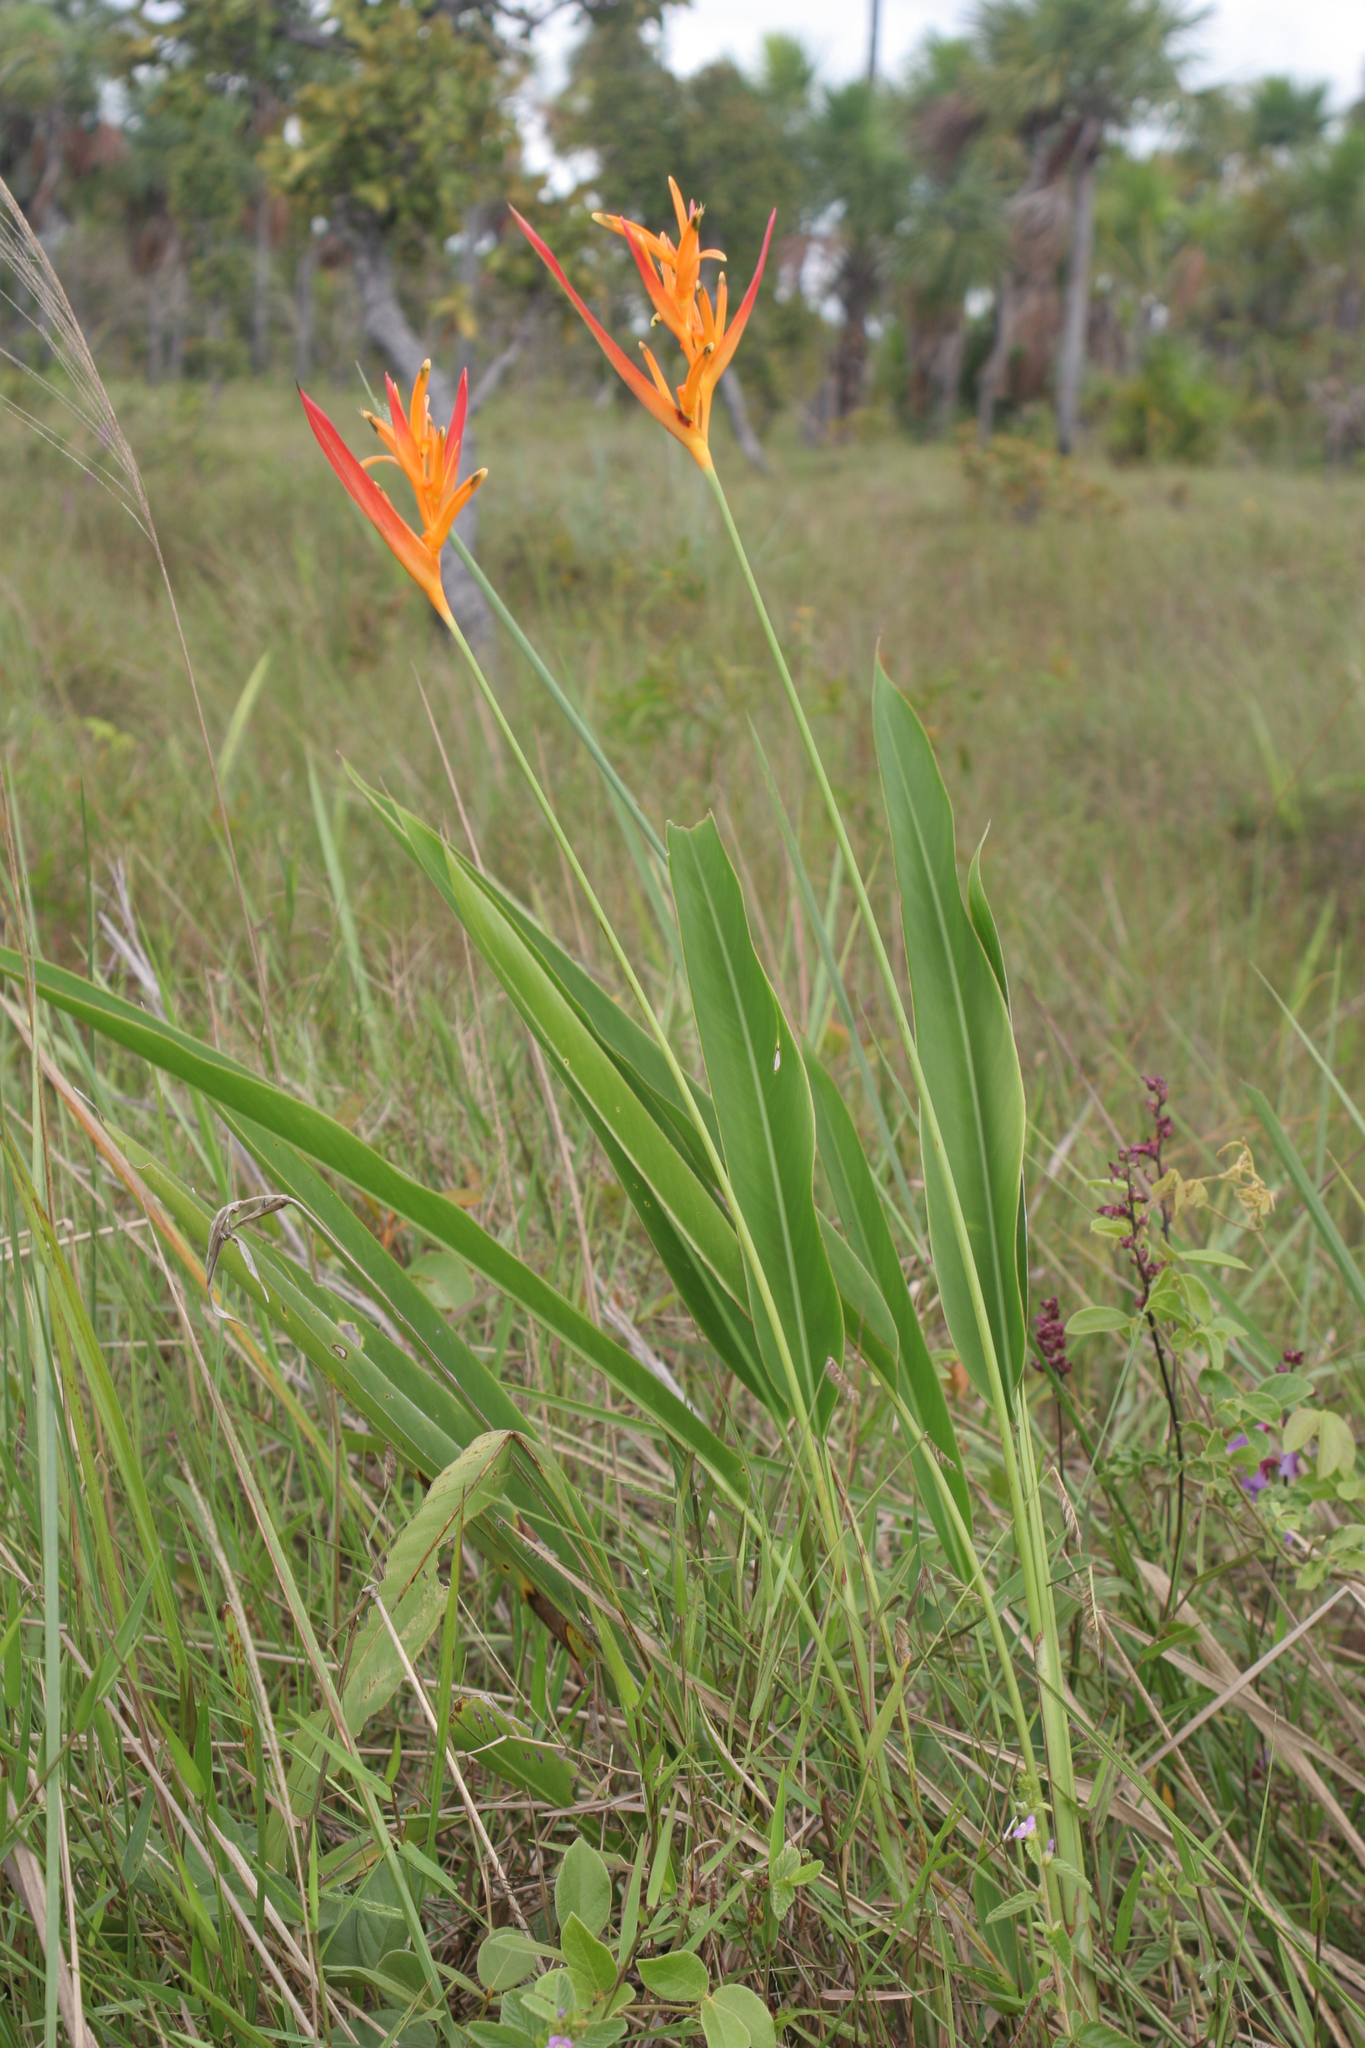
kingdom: Plantae
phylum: Tracheophyta
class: Liliopsida
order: Zingiberales
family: Heliconiaceae
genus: Heliconia
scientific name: Heliconia psittacorum
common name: Parrot's-flower
